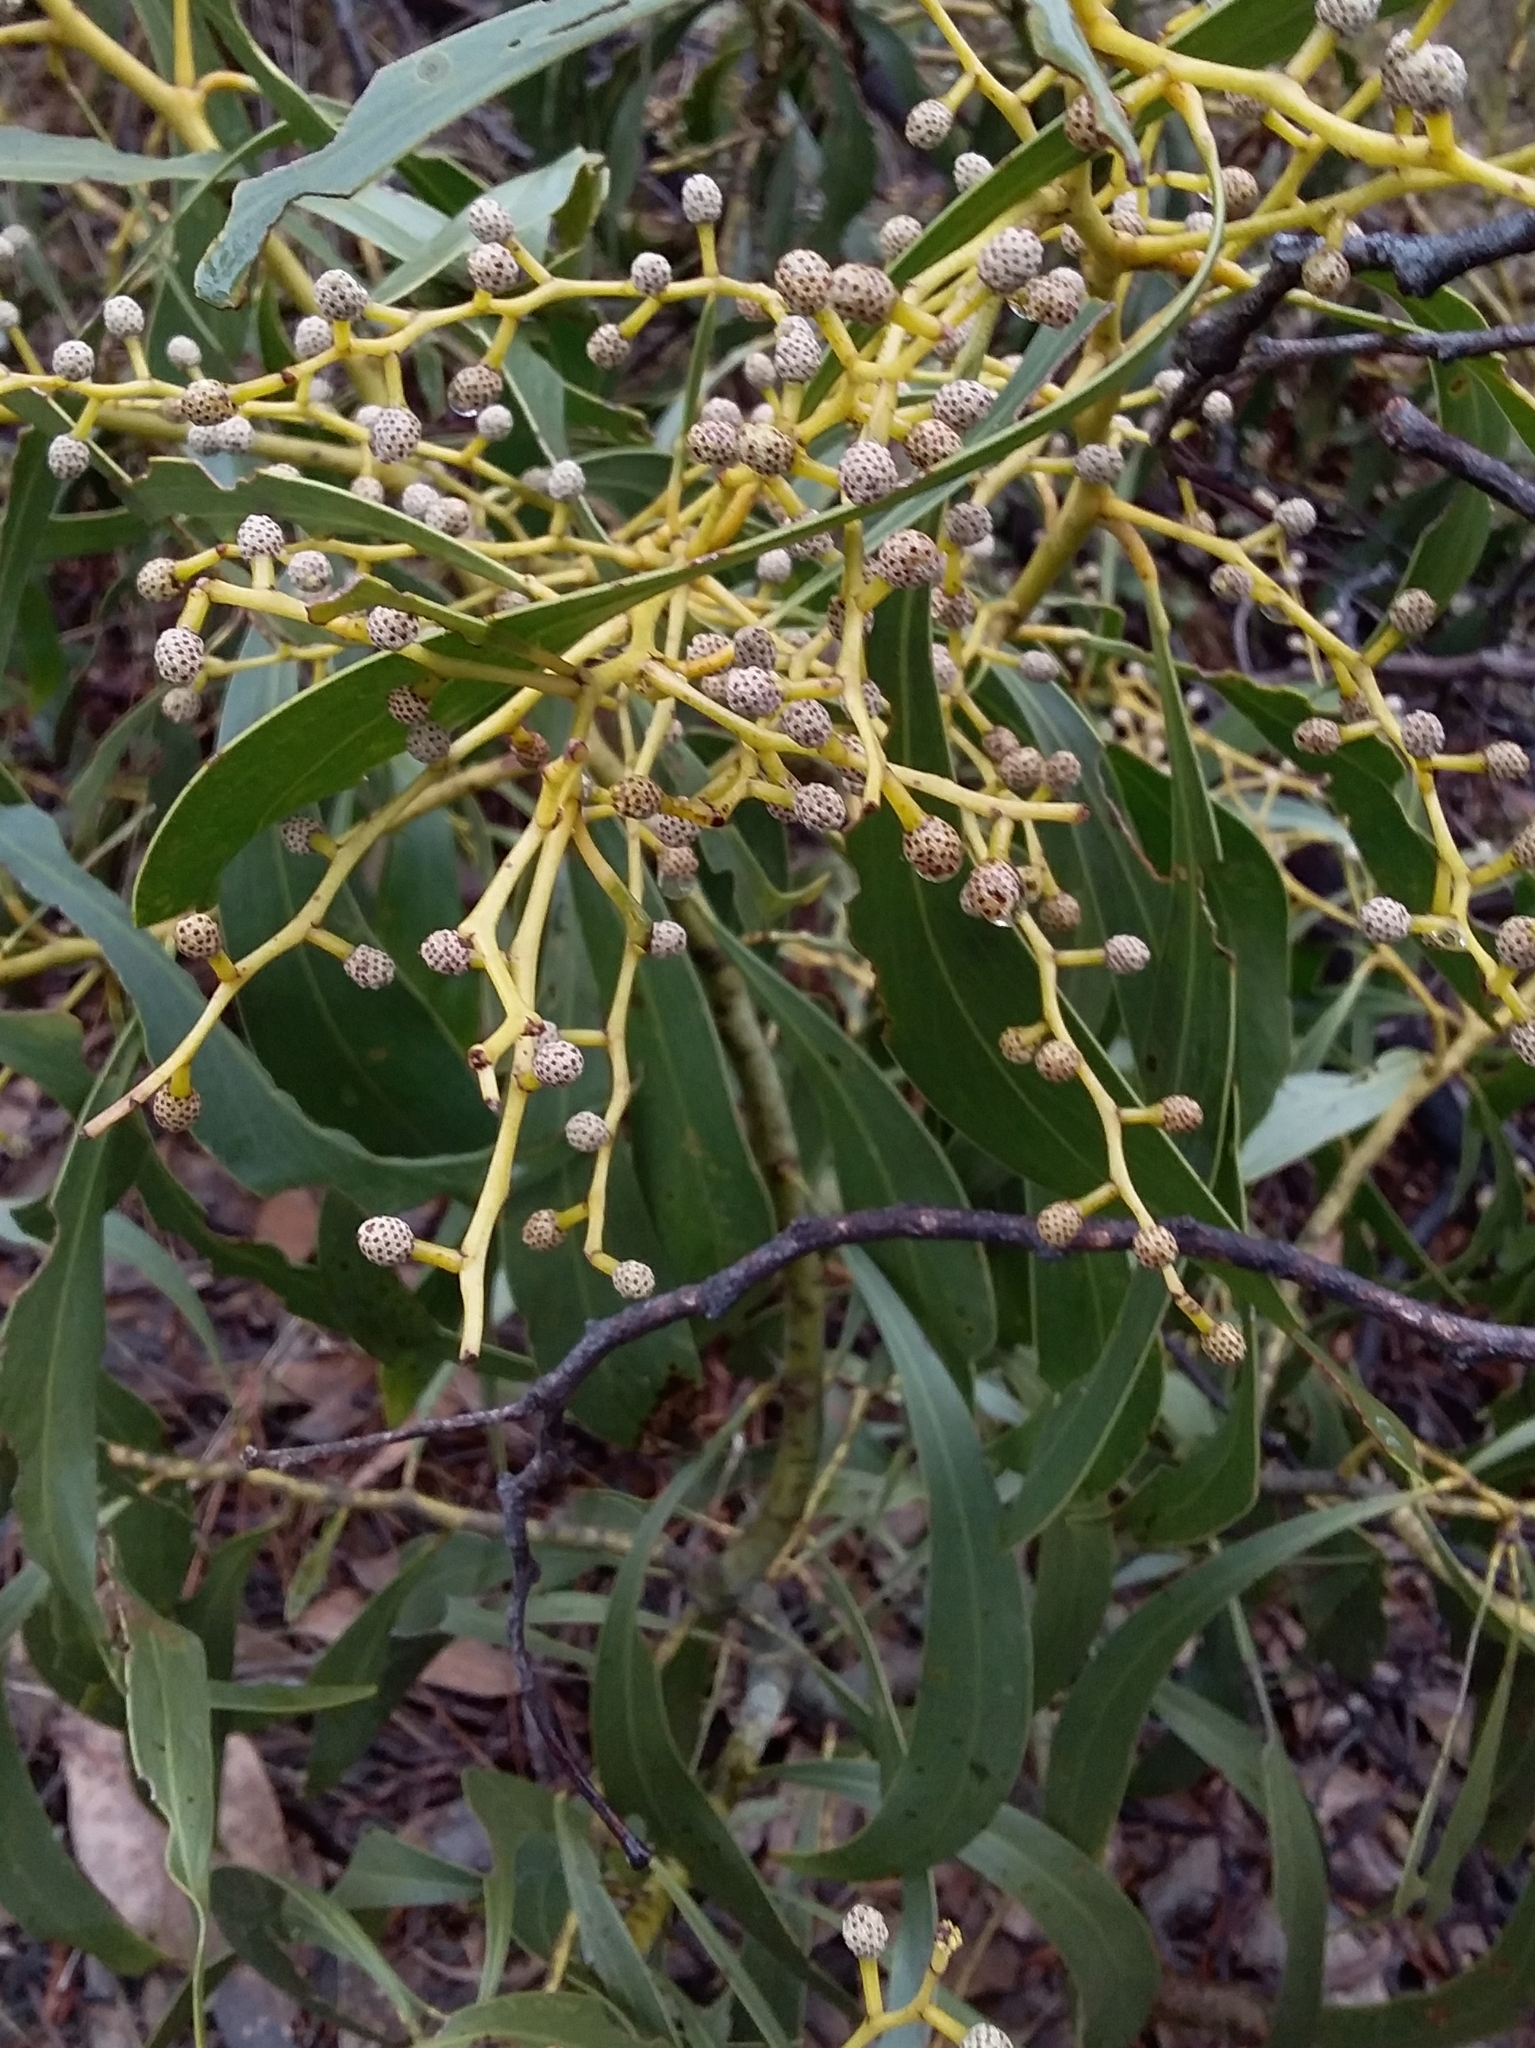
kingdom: Plantae
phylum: Tracheophyta
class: Magnoliopsida
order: Fabales
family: Fabaceae
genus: Acacia
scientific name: Acacia pycnantha
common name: Golden wattle
